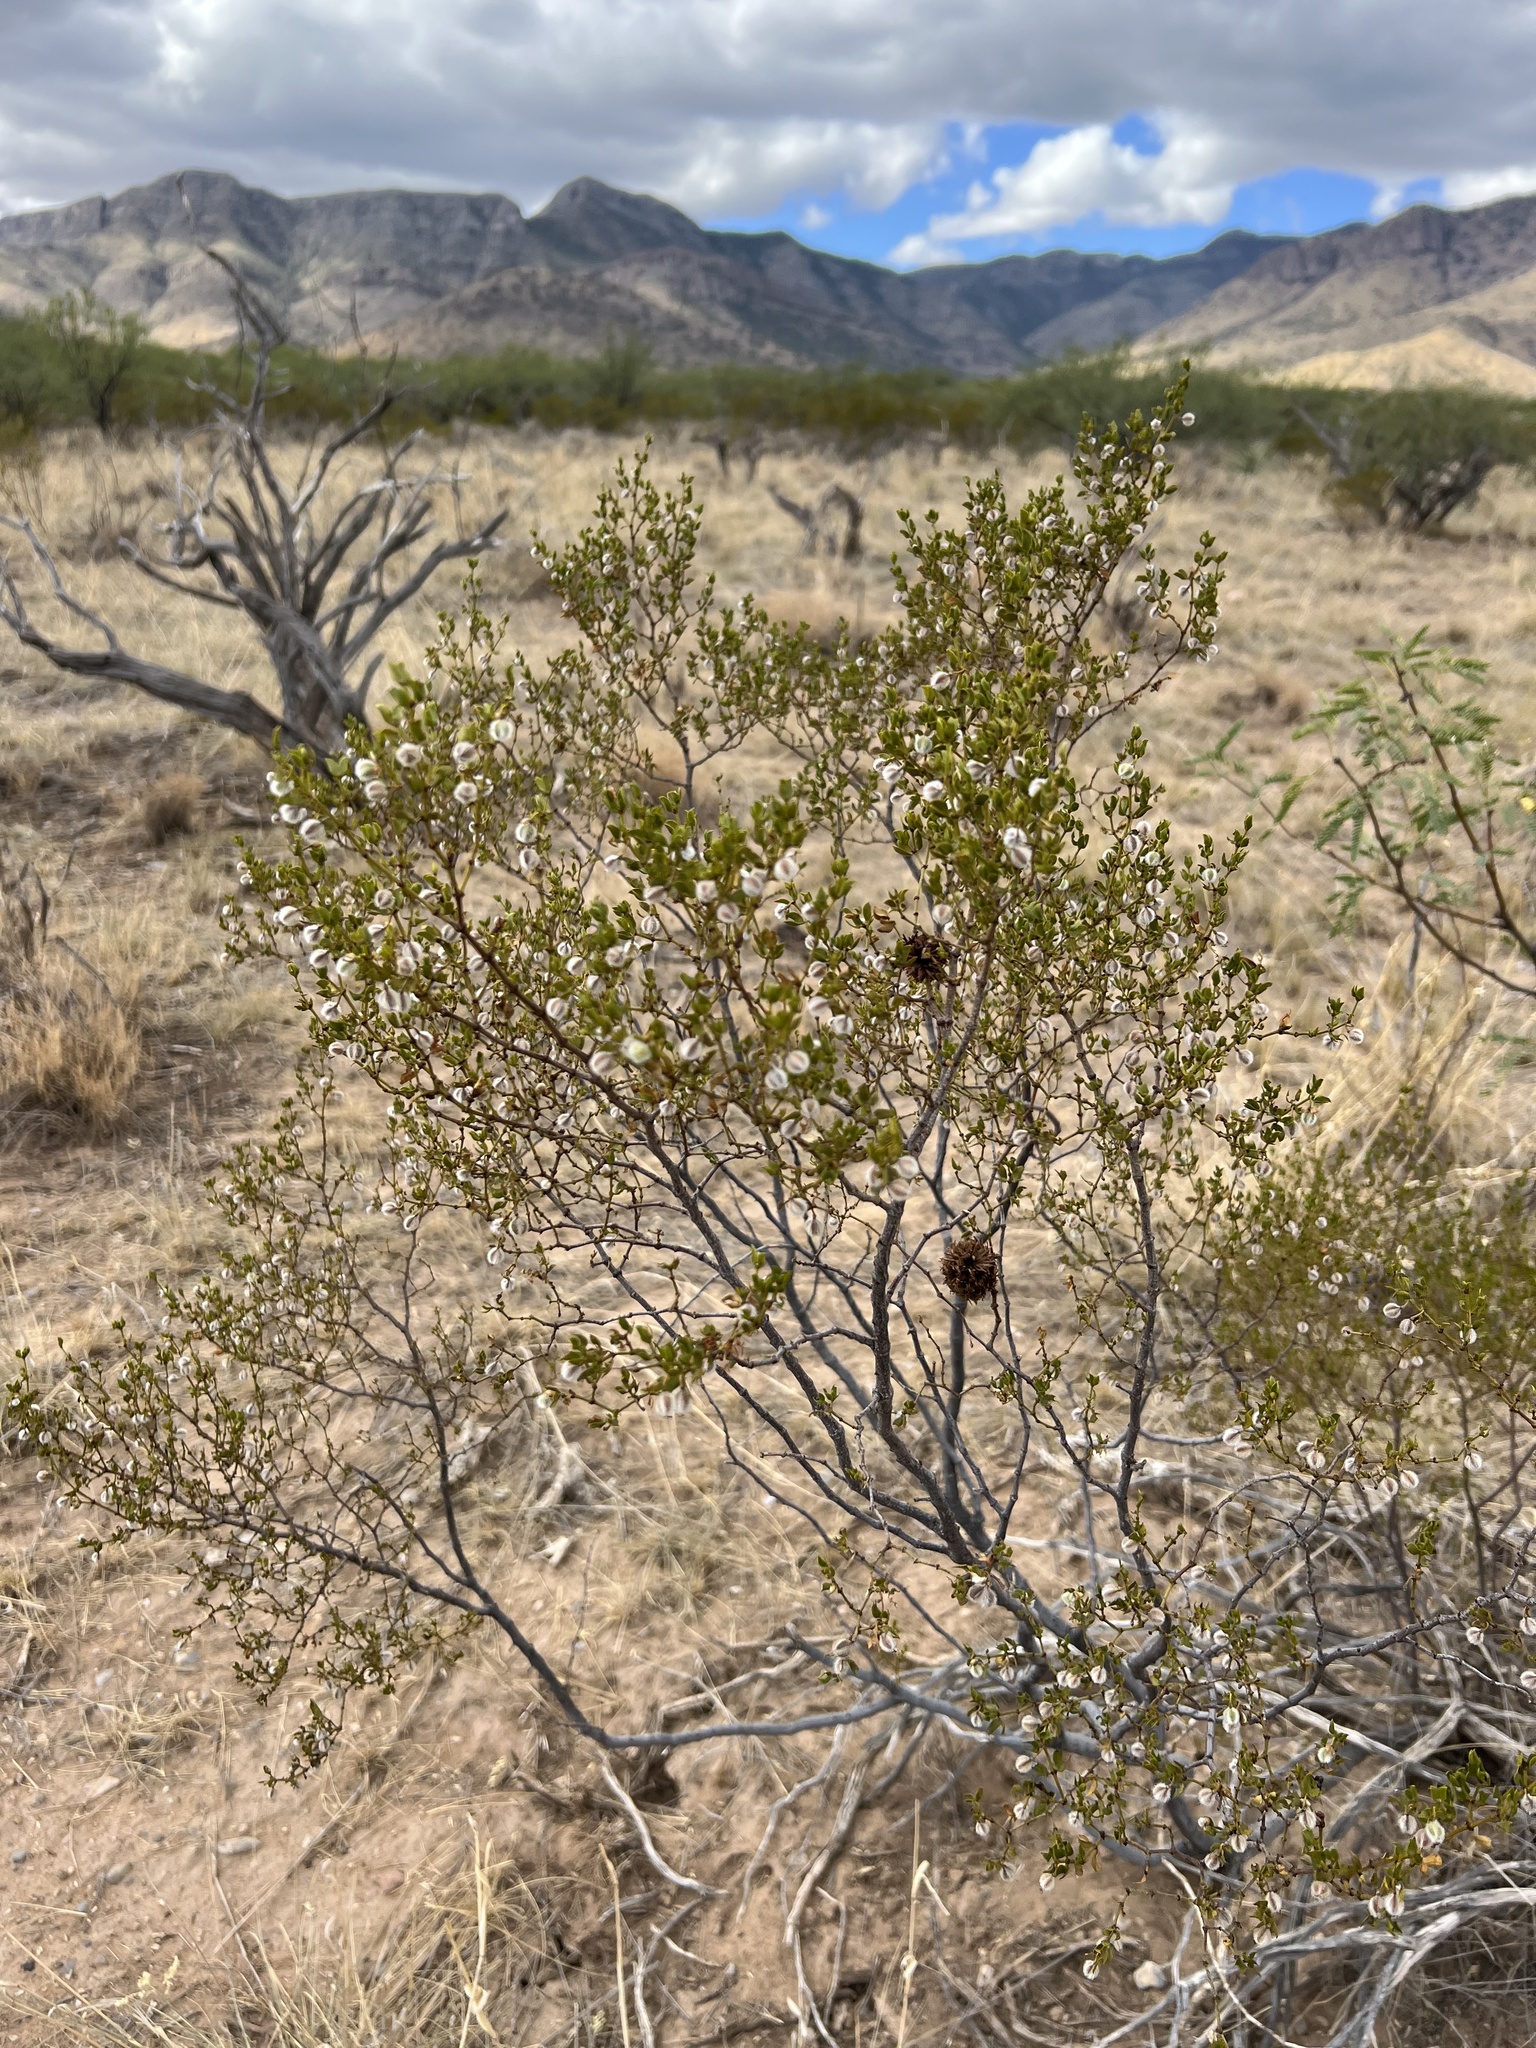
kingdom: Plantae
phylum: Tracheophyta
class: Magnoliopsida
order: Zygophyllales
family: Zygophyllaceae
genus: Larrea
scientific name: Larrea tridentata
